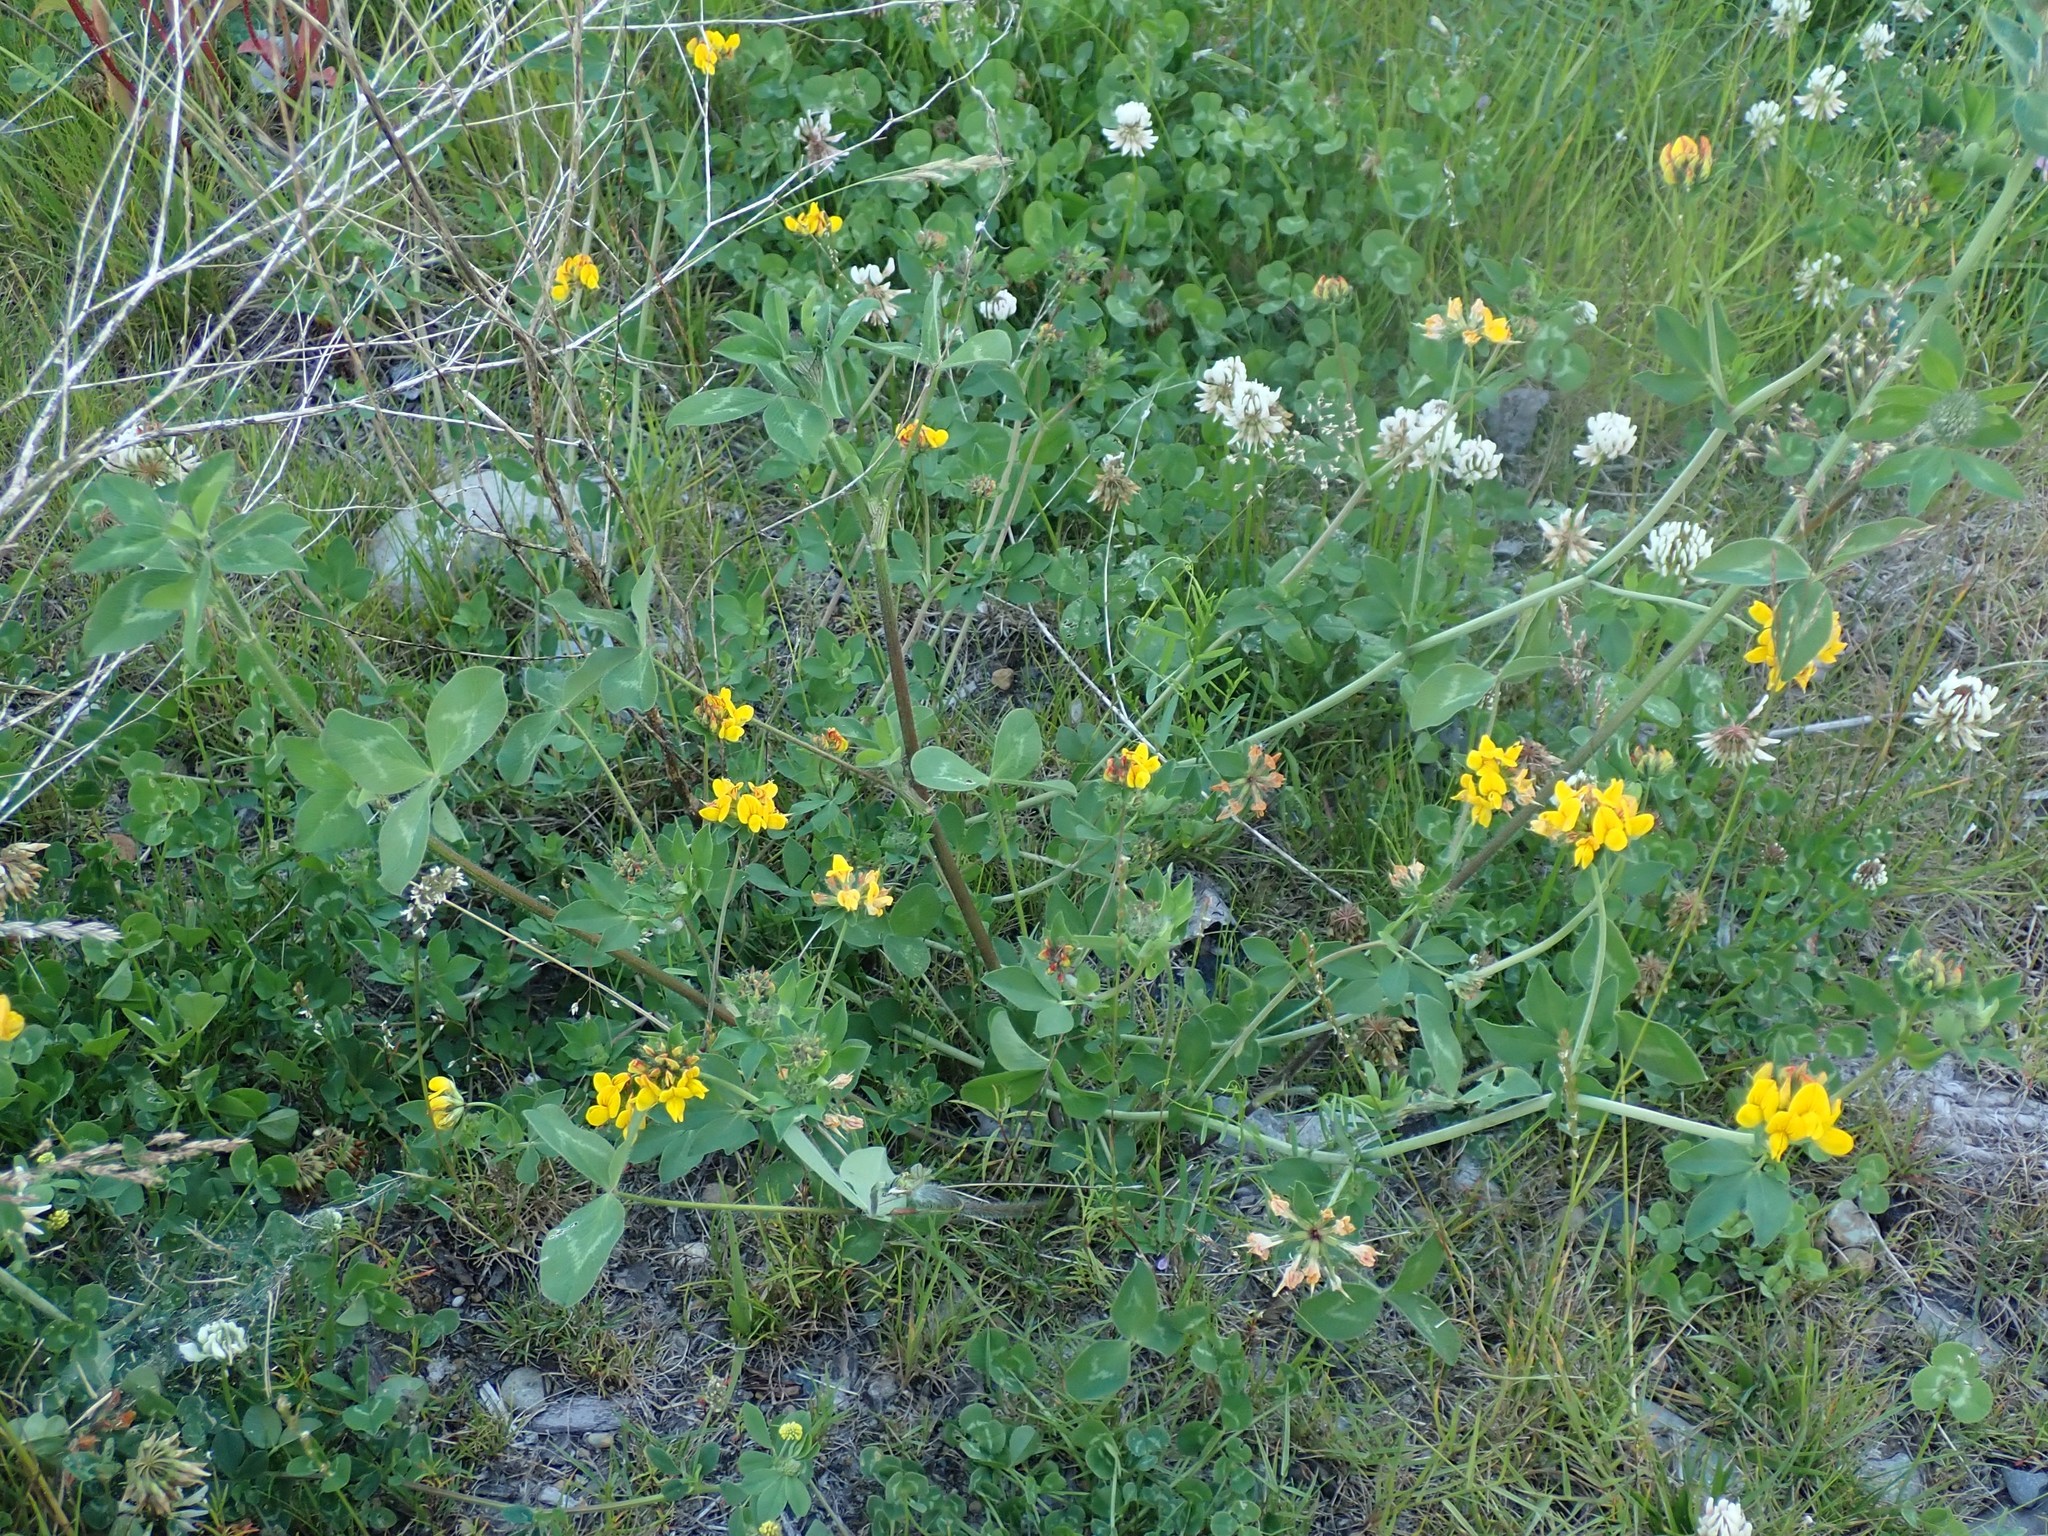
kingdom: Plantae
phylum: Tracheophyta
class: Magnoliopsida
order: Fabales
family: Fabaceae
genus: Lotus
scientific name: Lotus pedunculatus
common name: Greater birdsfoot-trefoil
